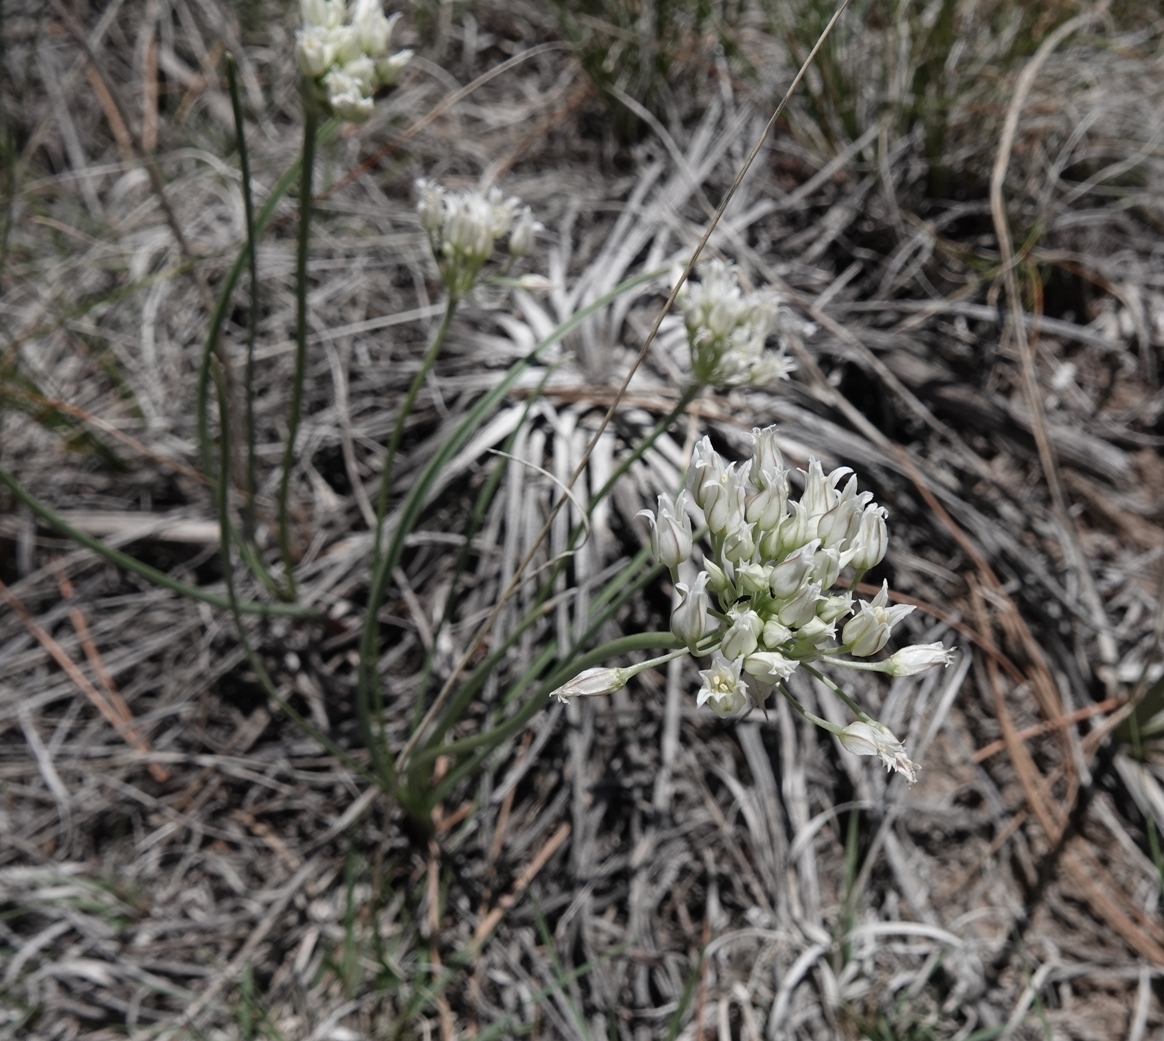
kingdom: Plantae
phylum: Tracheophyta
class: Liliopsida
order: Asparagales
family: Amaryllidaceae
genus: Allium
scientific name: Allium textile
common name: Prairie onion
